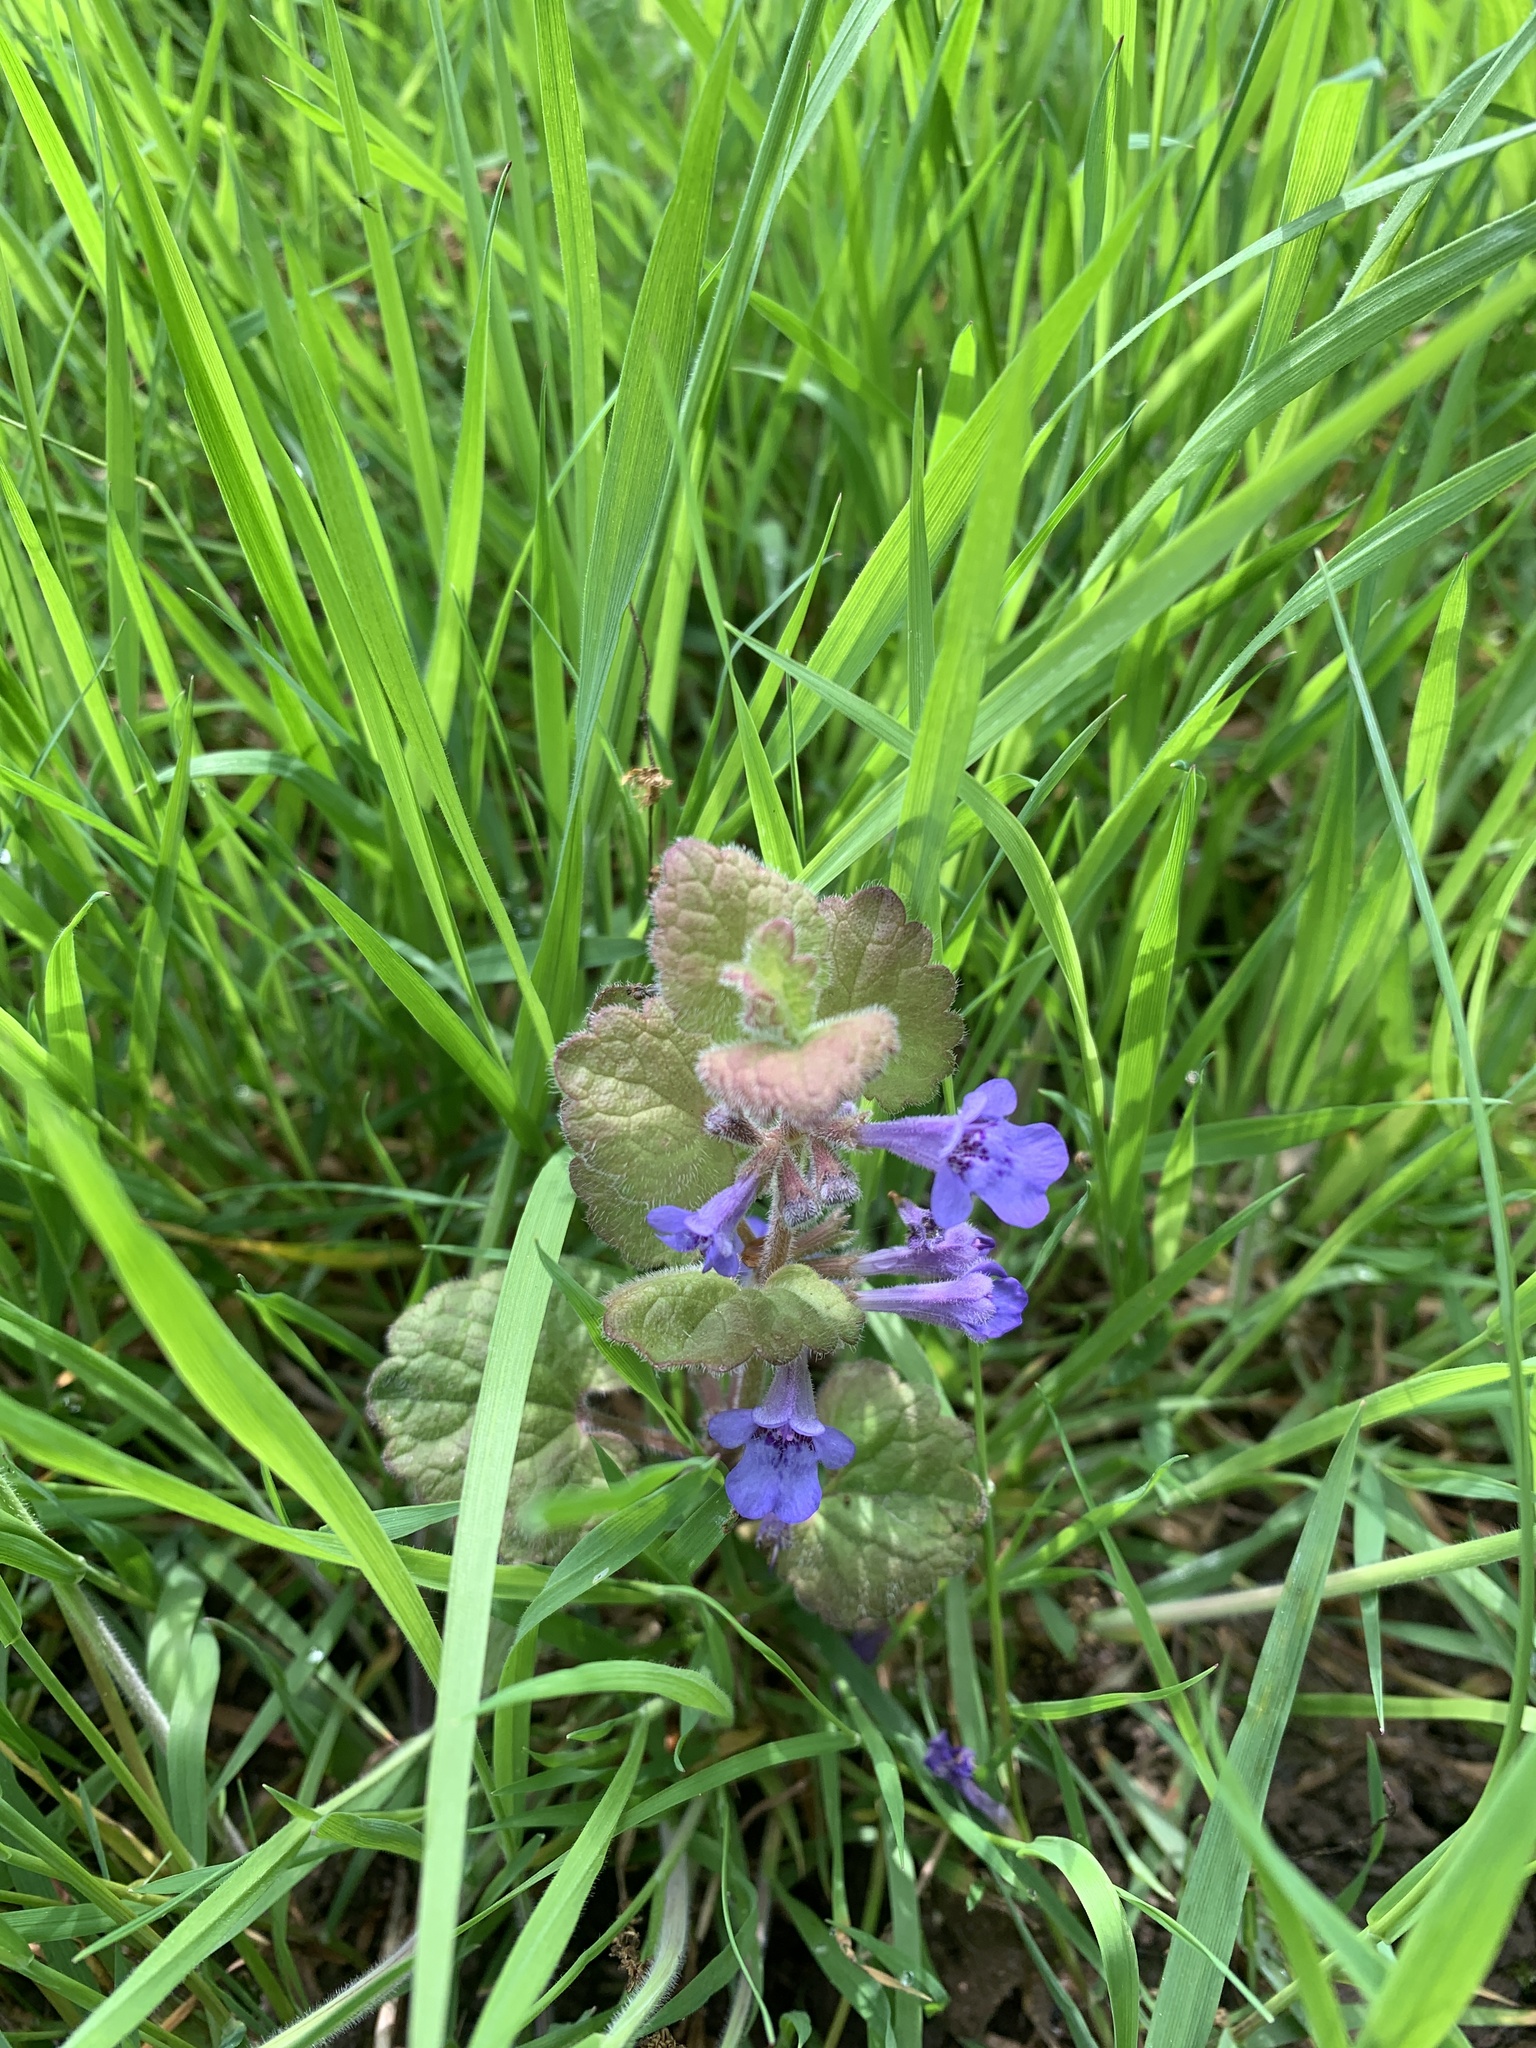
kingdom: Plantae
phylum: Tracheophyta
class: Magnoliopsida
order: Lamiales
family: Lamiaceae
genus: Glechoma
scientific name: Glechoma hederacea
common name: Ground ivy
